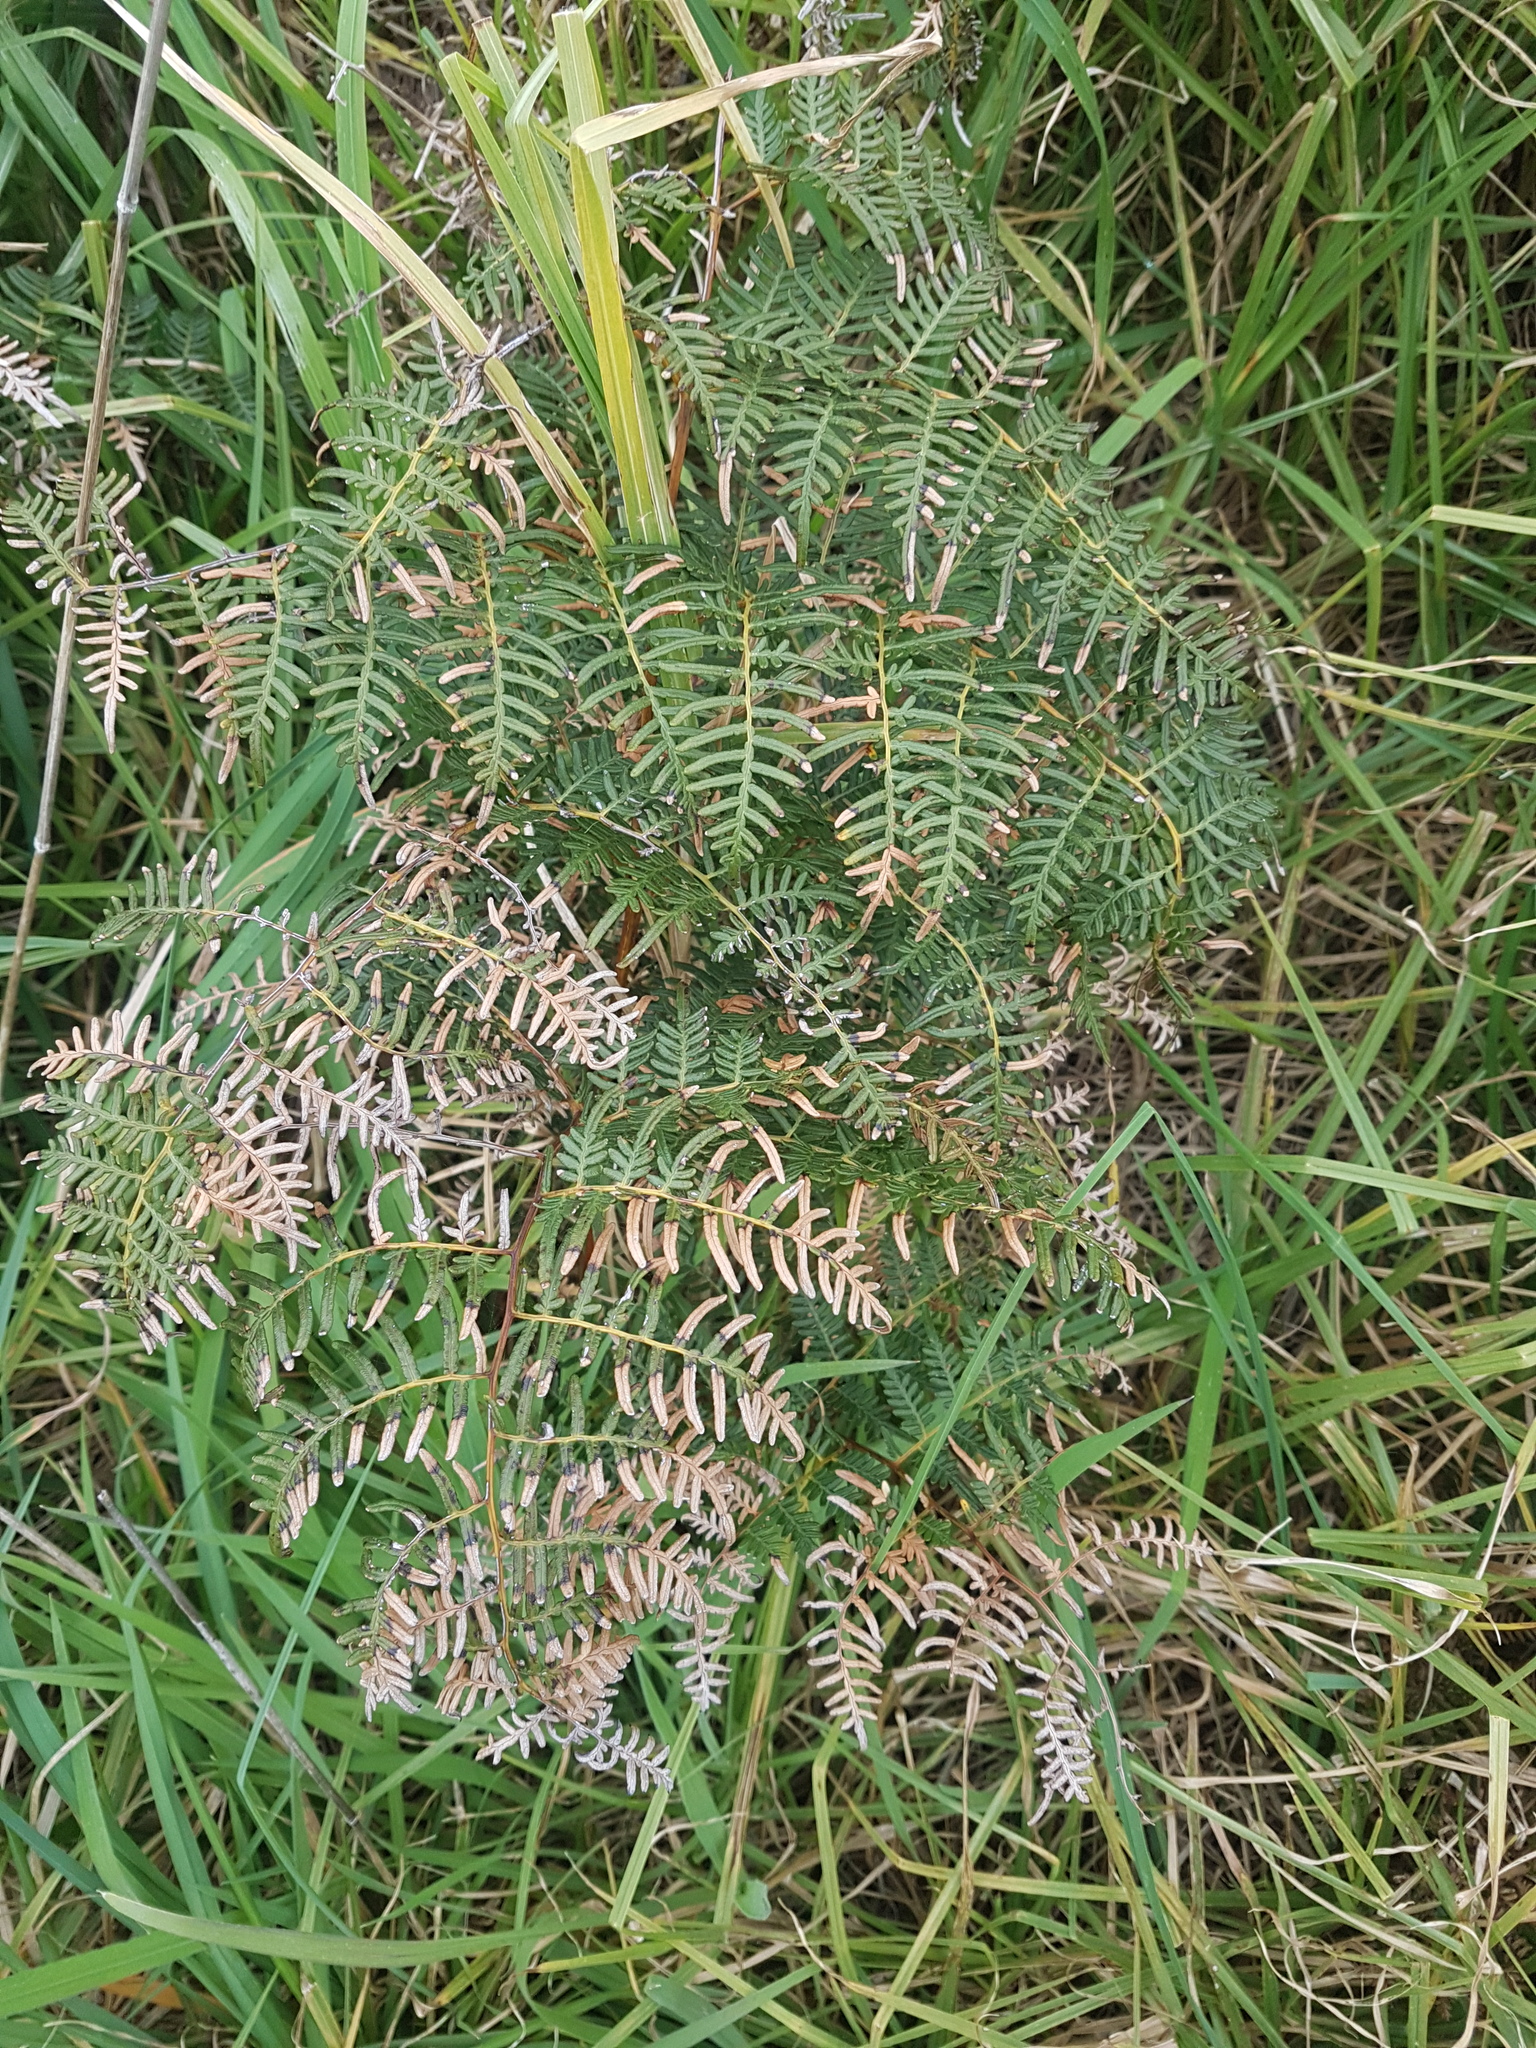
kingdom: Plantae
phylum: Tracheophyta
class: Polypodiopsida
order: Polypodiales
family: Dennstaedtiaceae
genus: Pteridium
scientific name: Pteridium esculentum
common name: Bracken fern
